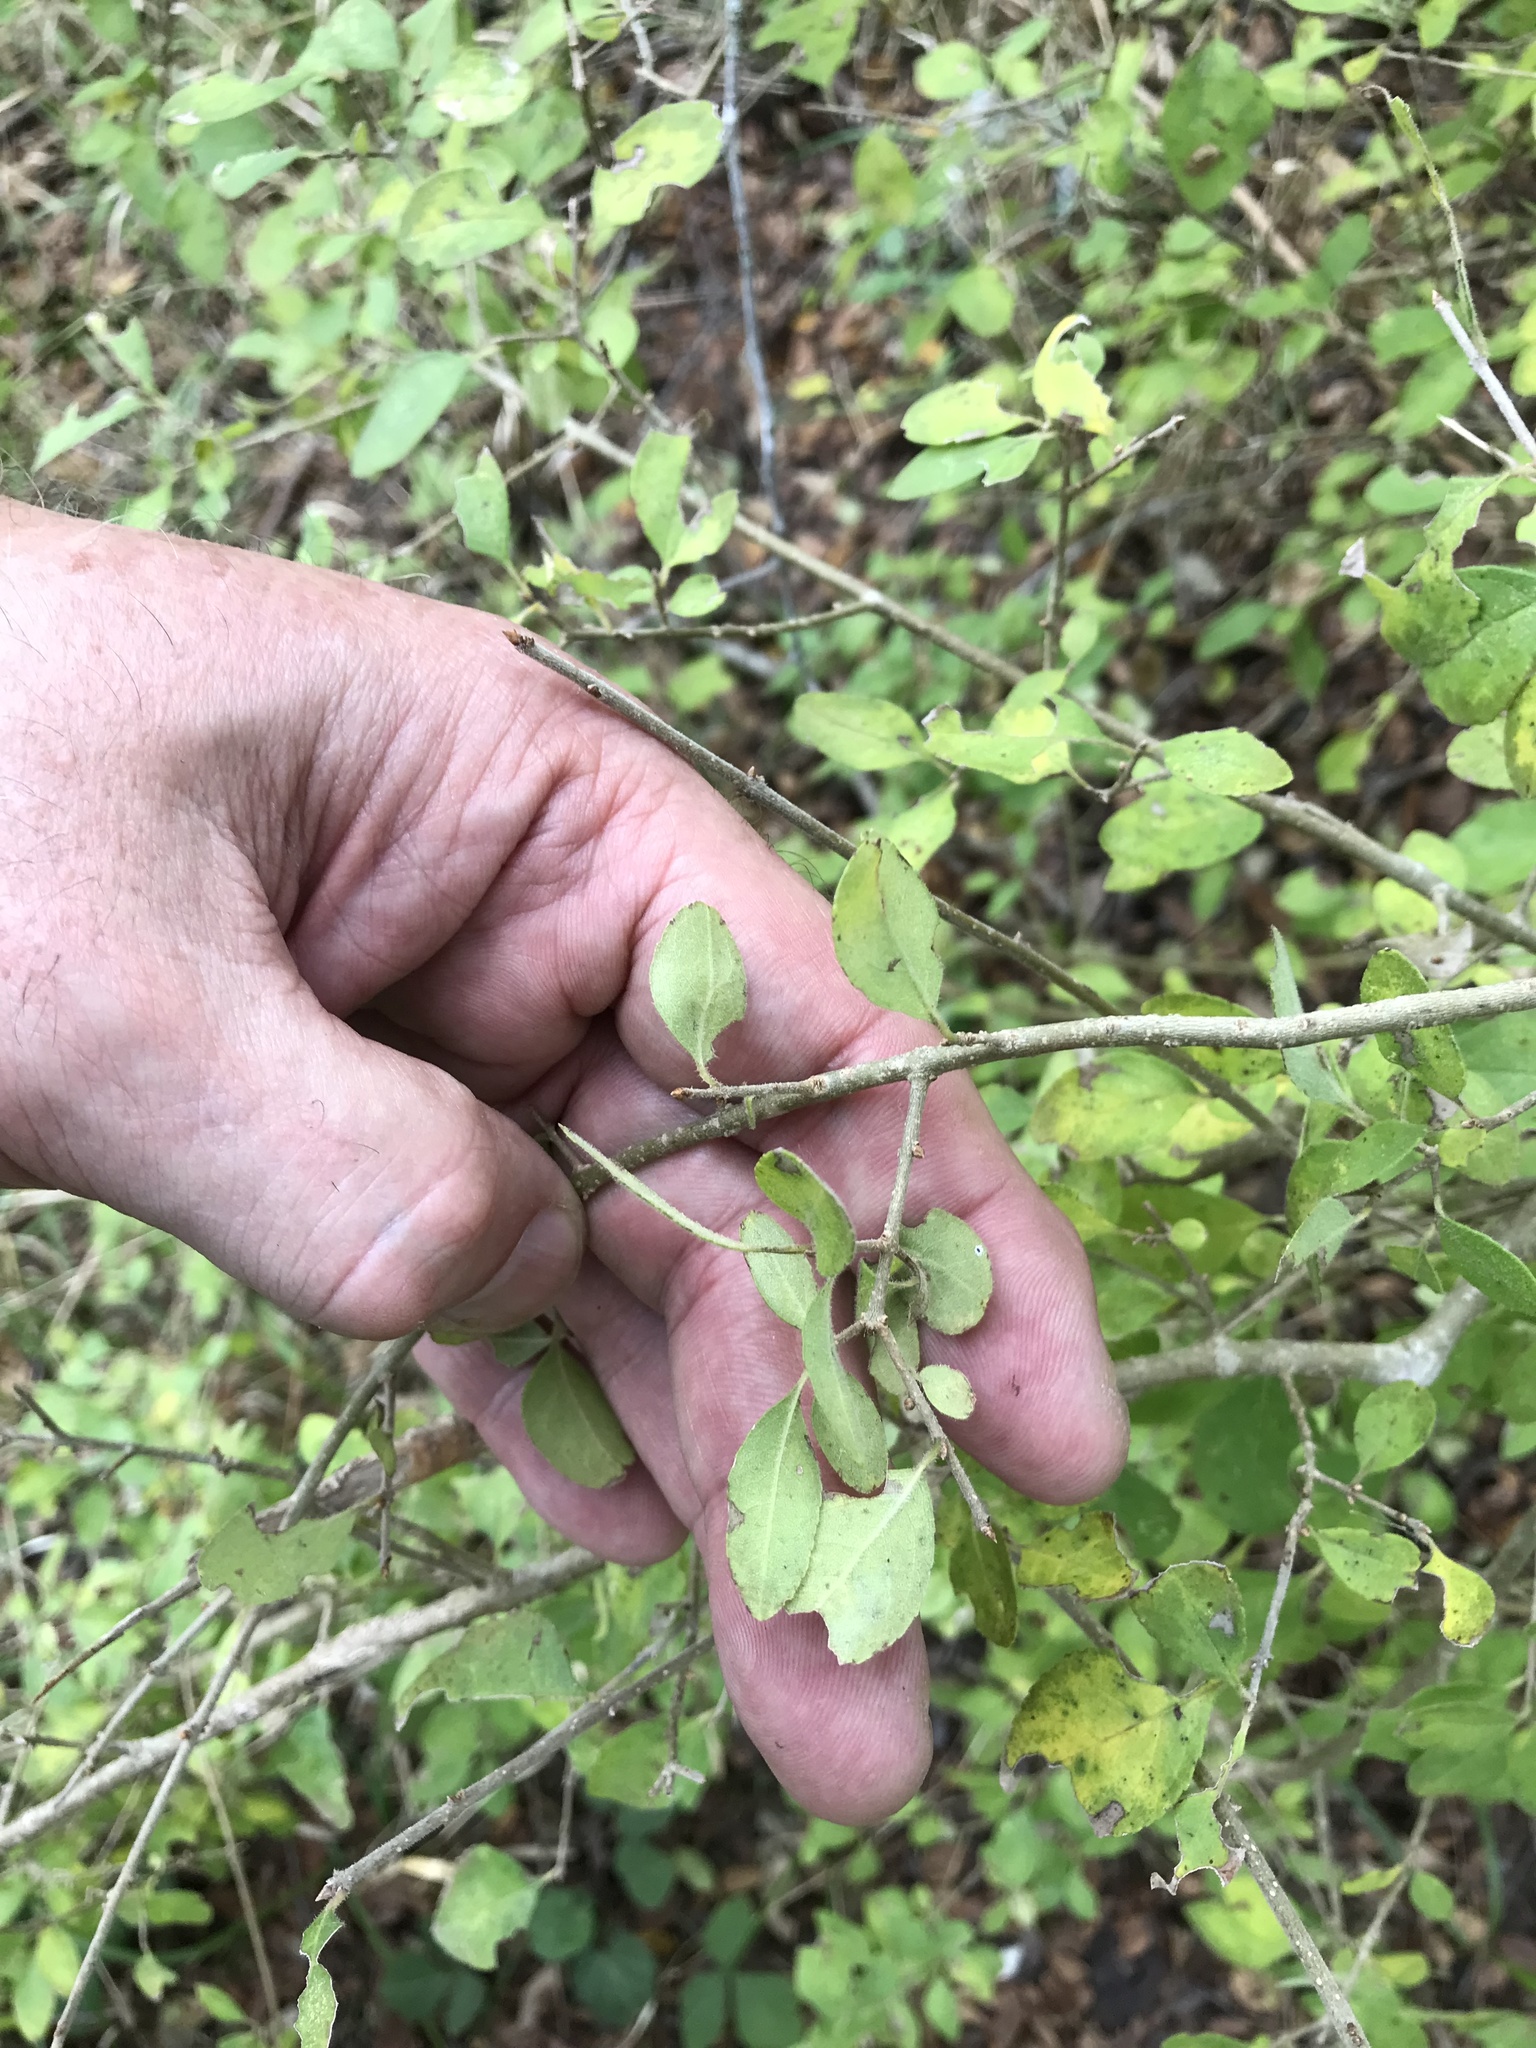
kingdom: Plantae
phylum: Tracheophyta
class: Magnoliopsida
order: Lamiales
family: Oleaceae
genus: Forestiera
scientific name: Forestiera pubescens
